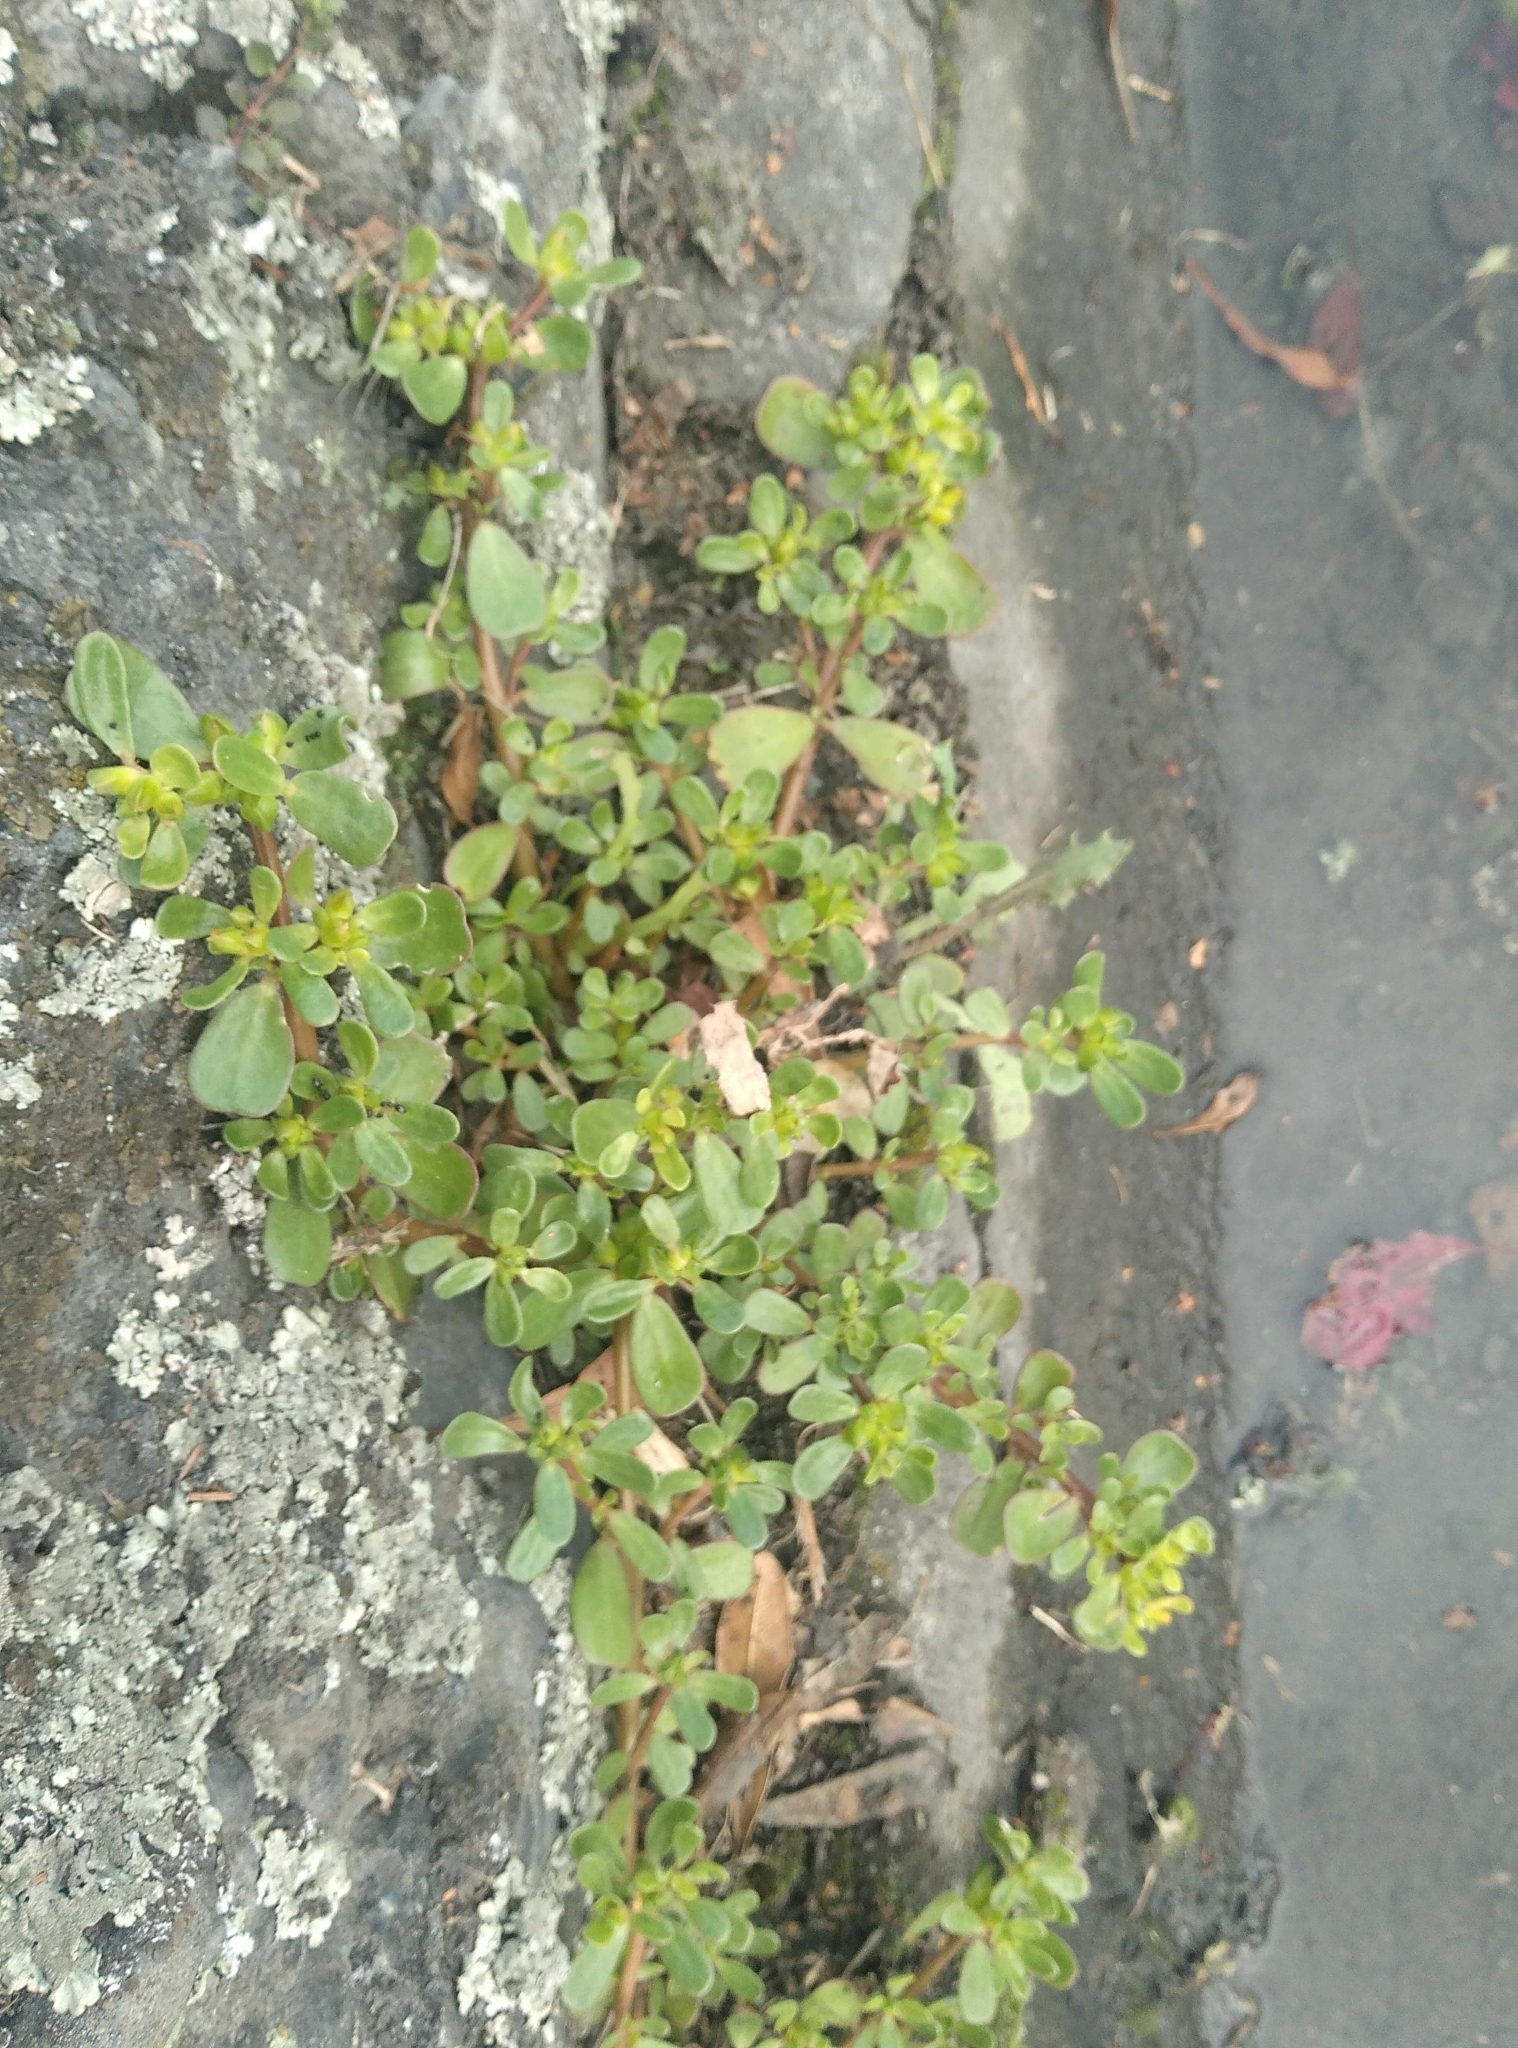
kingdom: Plantae
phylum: Tracheophyta
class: Magnoliopsida
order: Caryophyllales
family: Portulacaceae
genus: Portulaca
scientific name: Portulaca oleracea
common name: Common purslane
